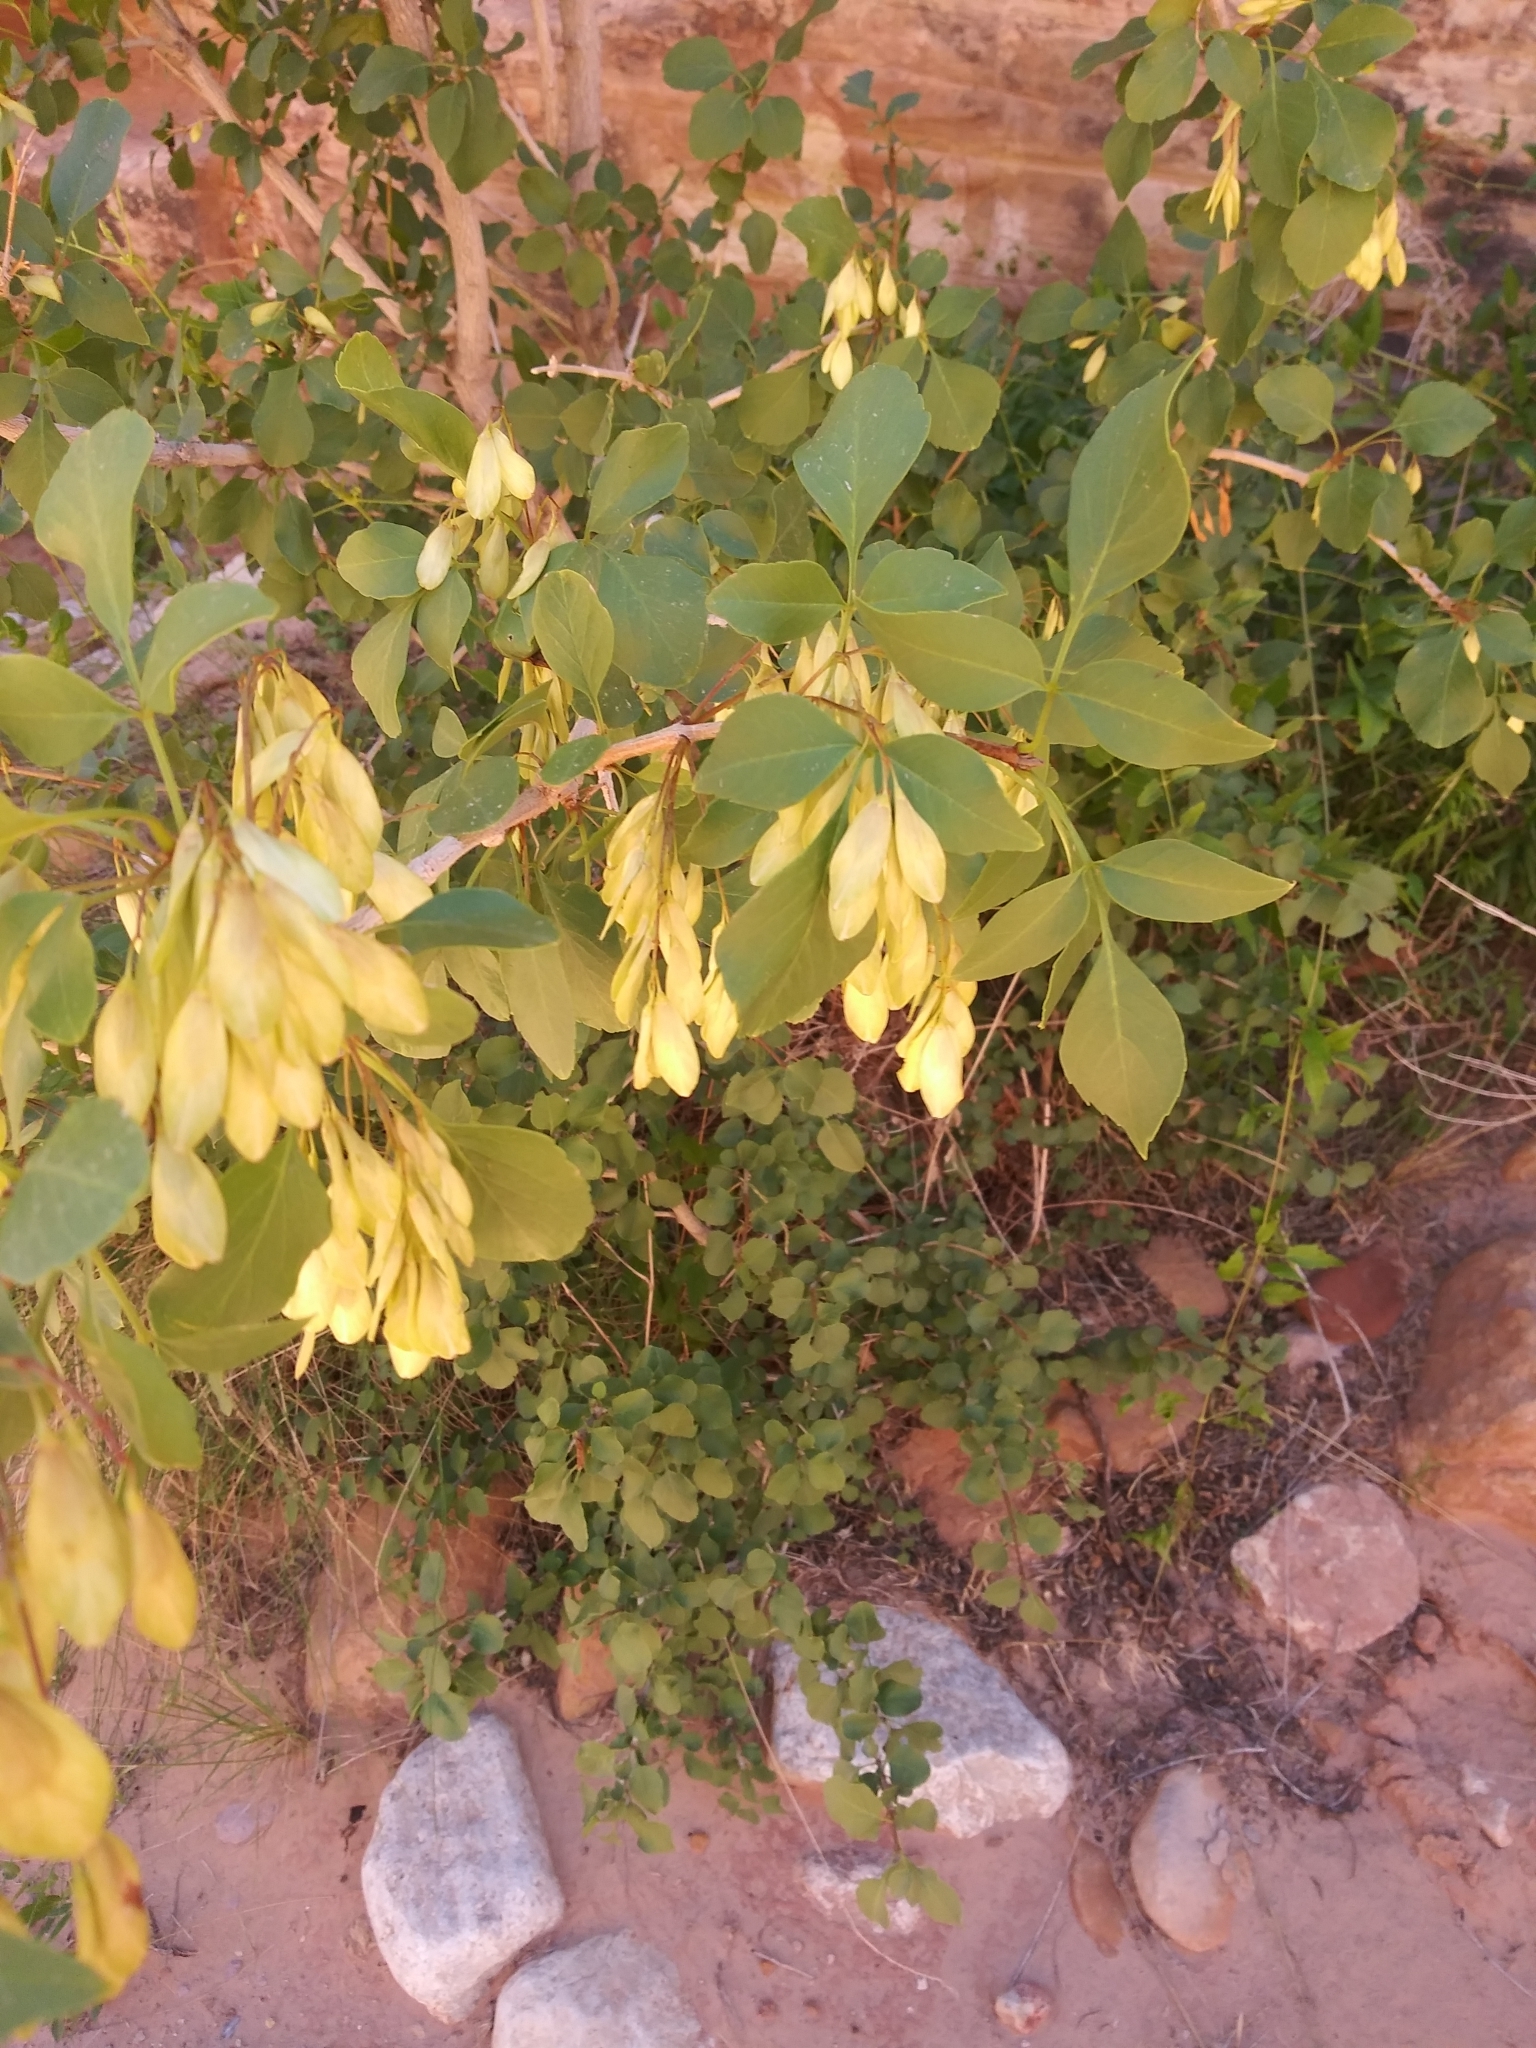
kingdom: Plantae
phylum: Tracheophyta
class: Magnoliopsida
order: Lamiales
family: Oleaceae
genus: Fraxinus
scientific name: Fraxinus anomala
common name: Utah ash
